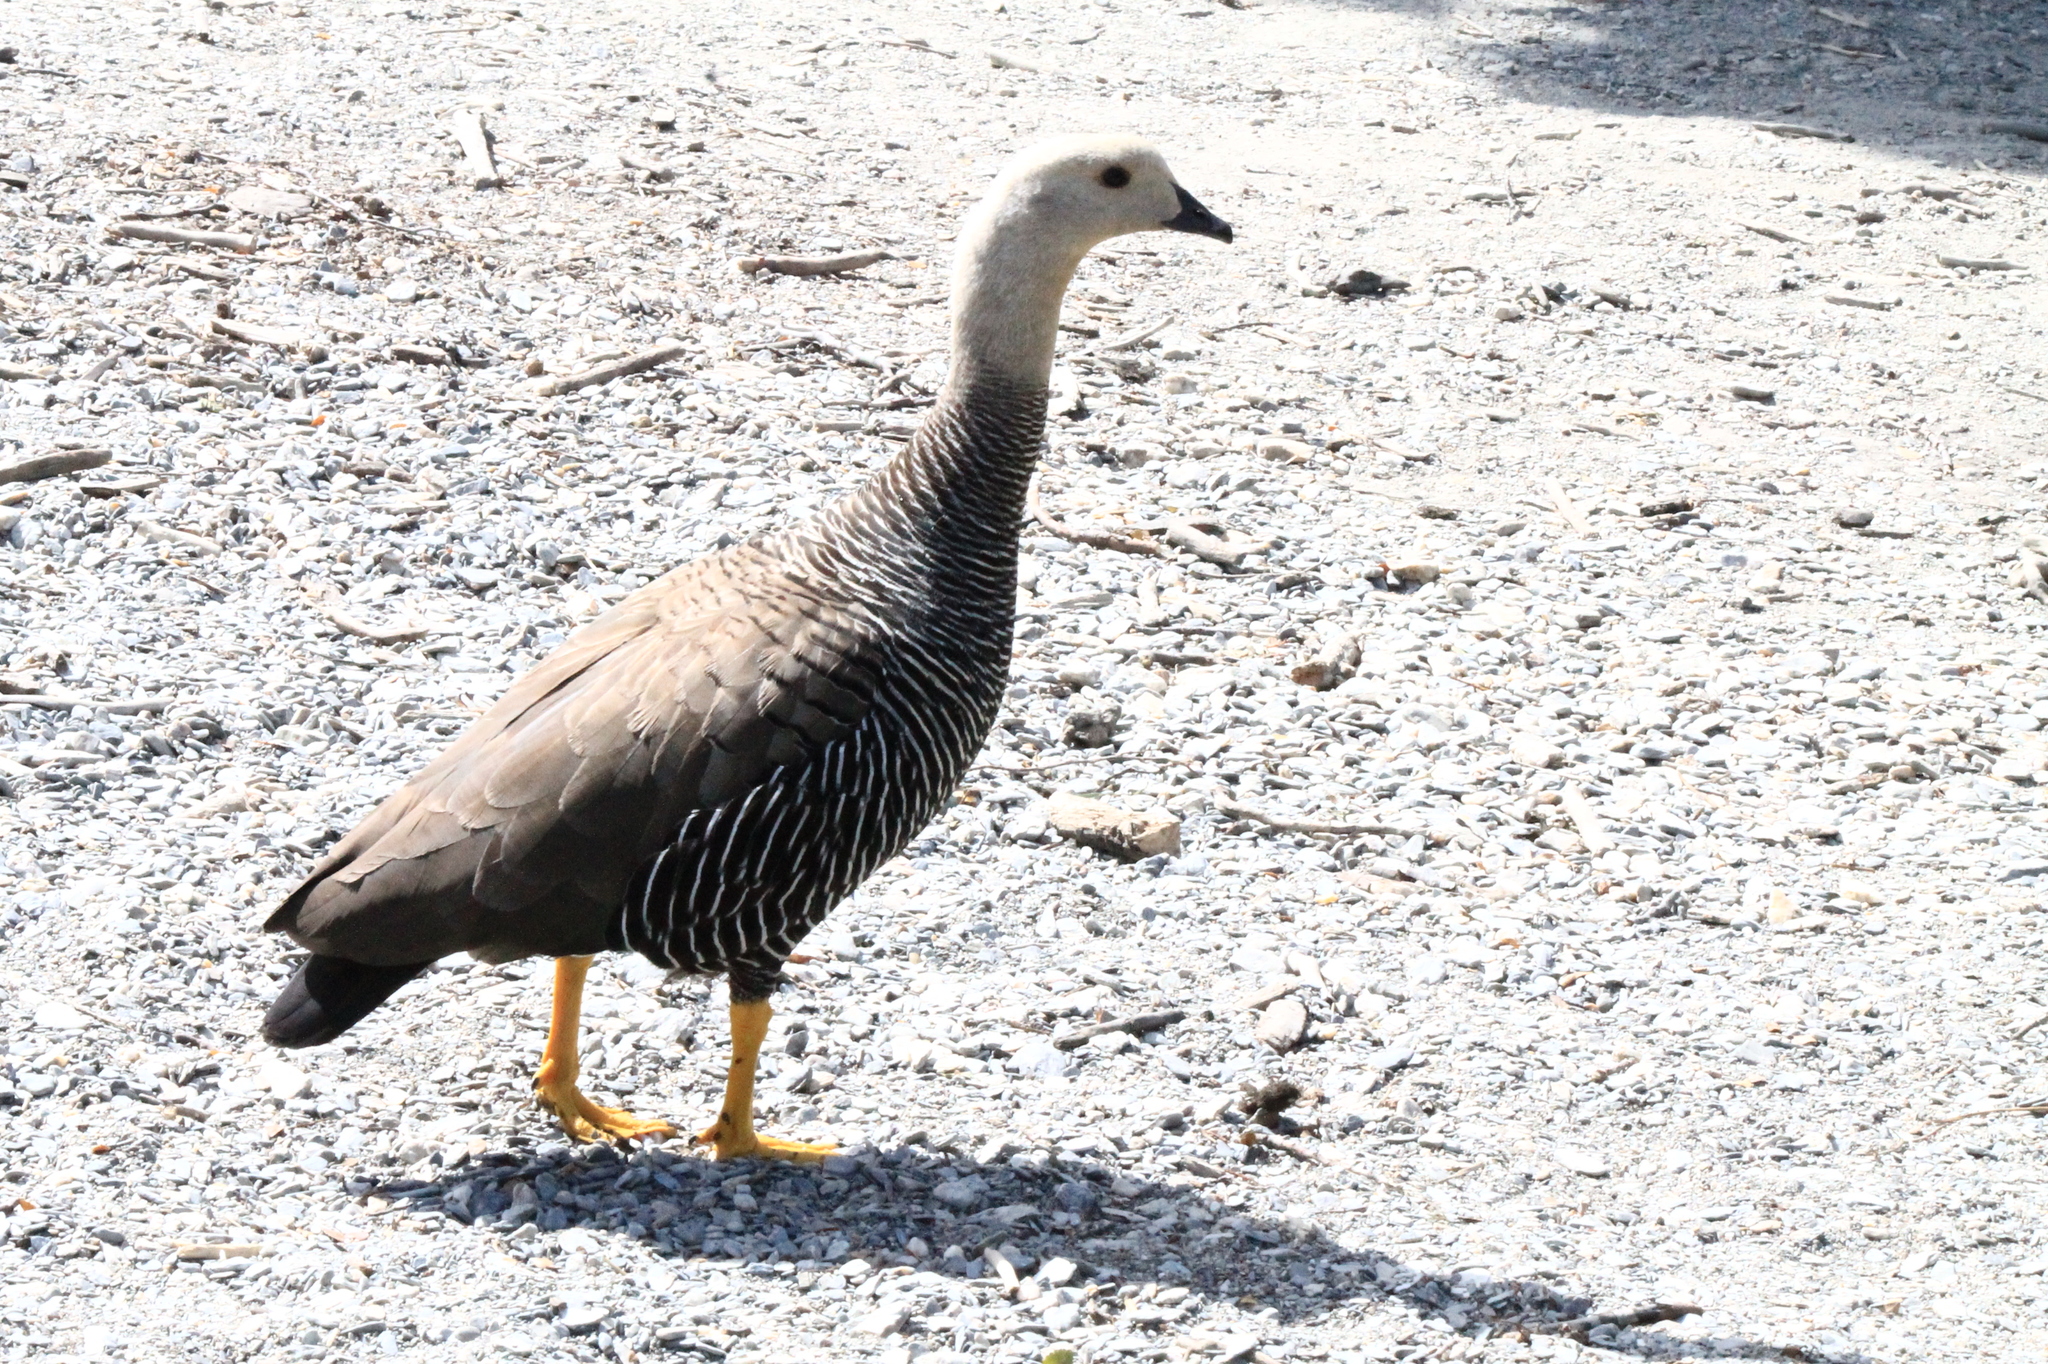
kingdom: Animalia
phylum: Chordata
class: Aves
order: Anseriformes
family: Anatidae
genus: Chloephaga
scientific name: Chloephaga picta
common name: Upland goose
